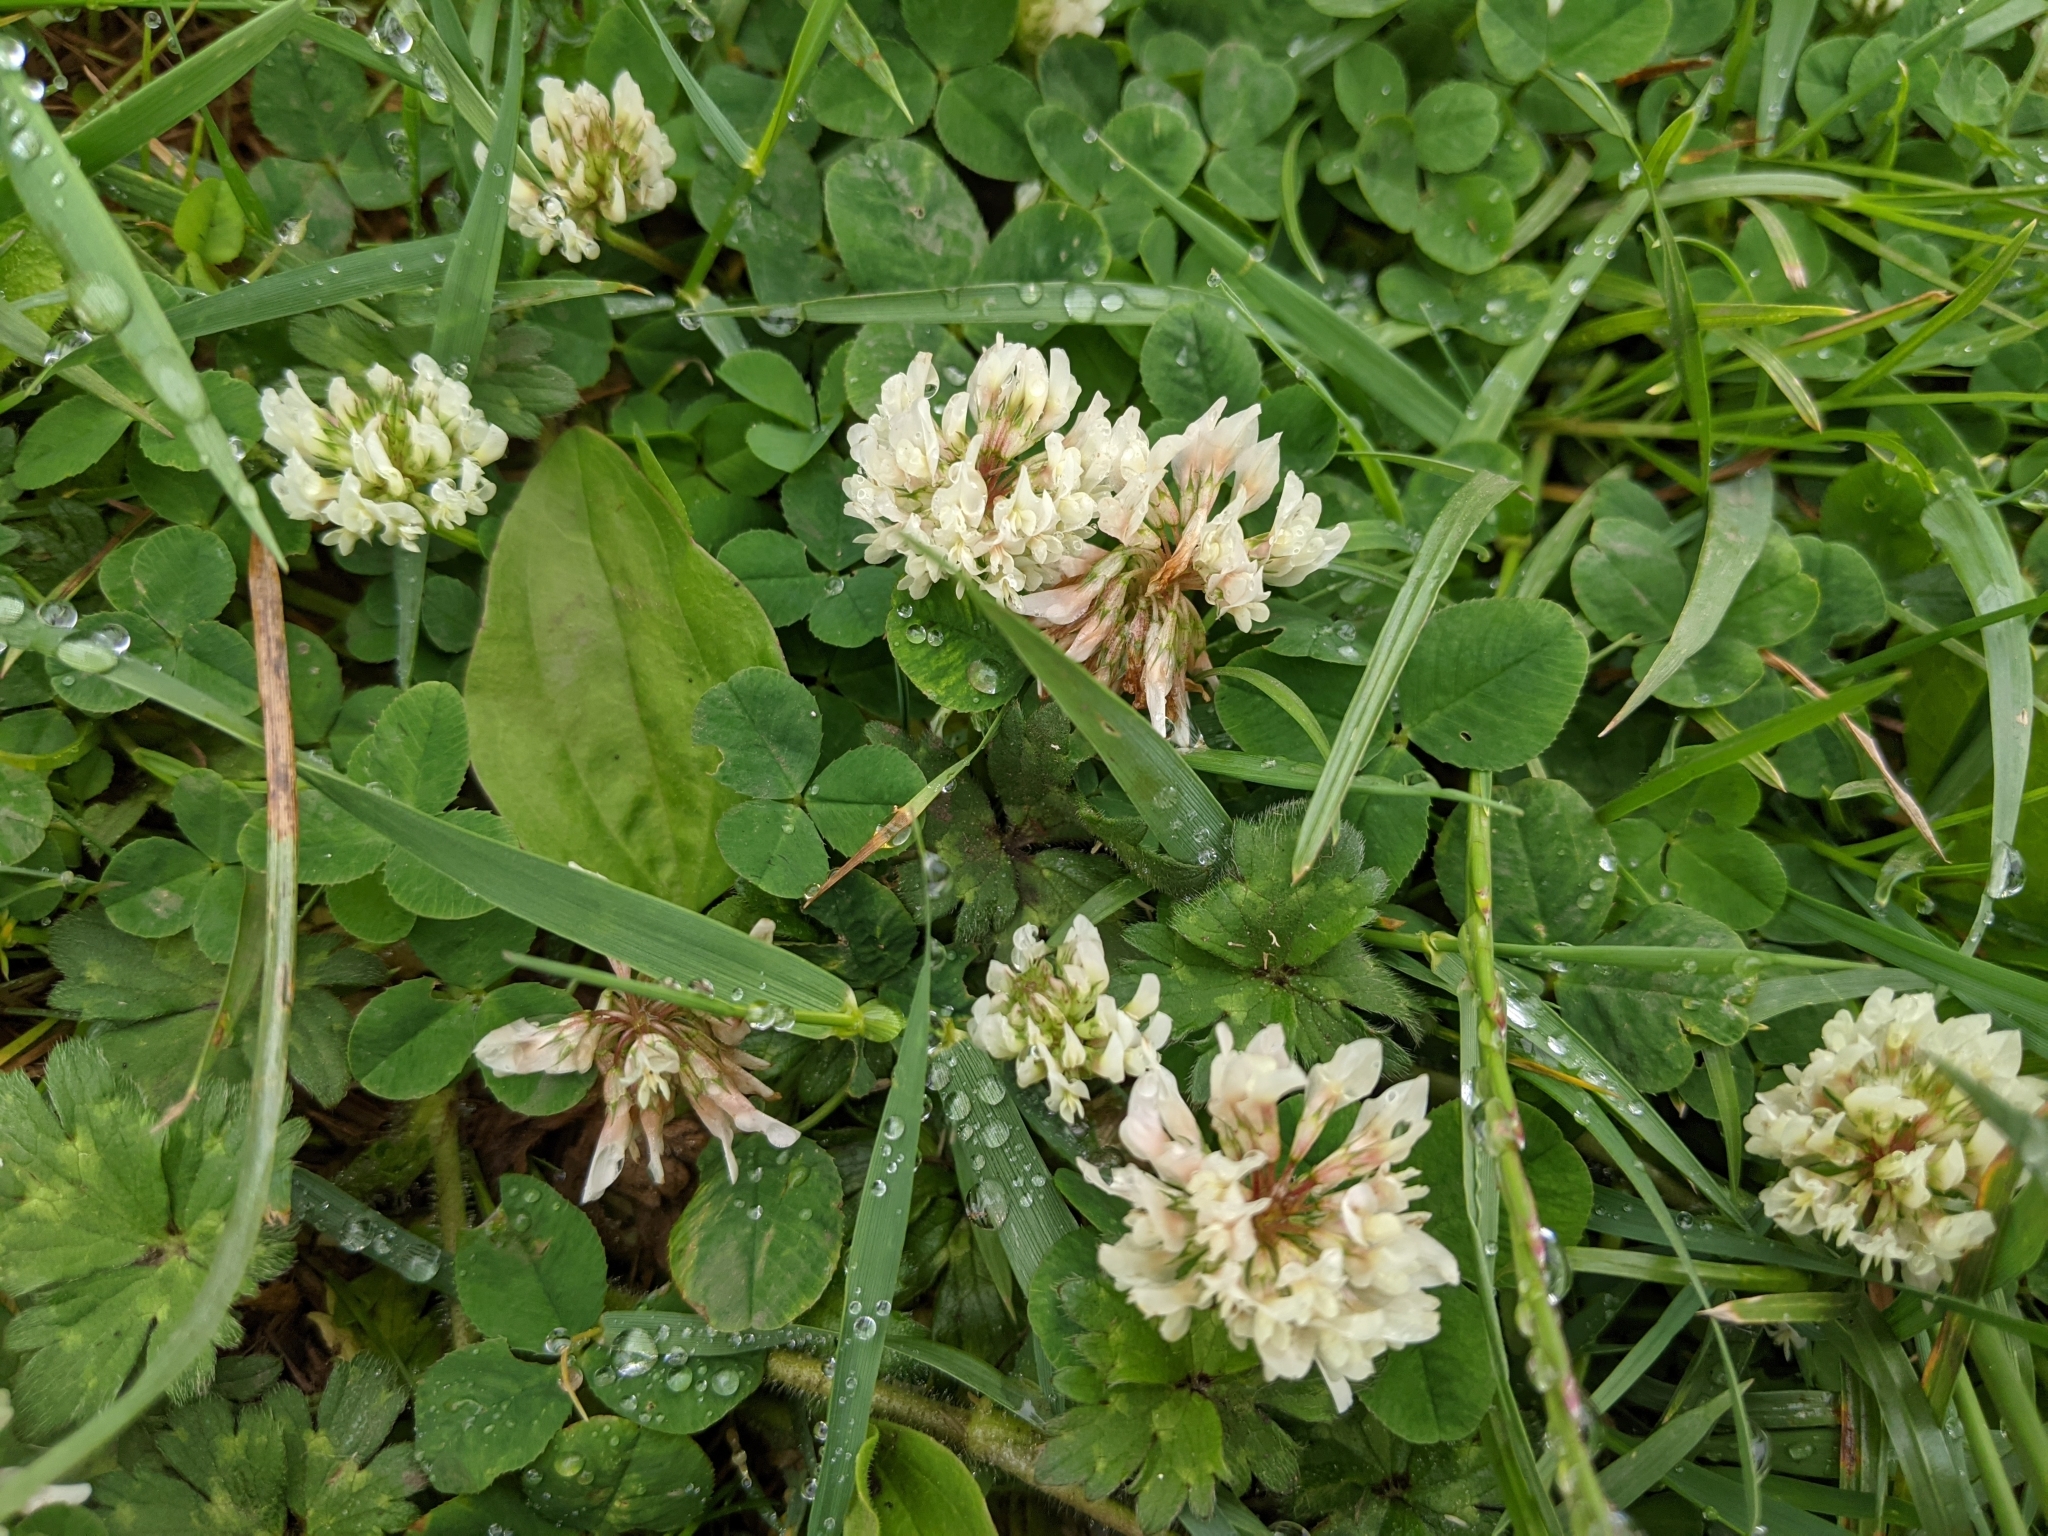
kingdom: Plantae
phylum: Tracheophyta
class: Magnoliopsida
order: Fabales
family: Fabaceae
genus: Trifolium
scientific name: Trifolium repens
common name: White clover
